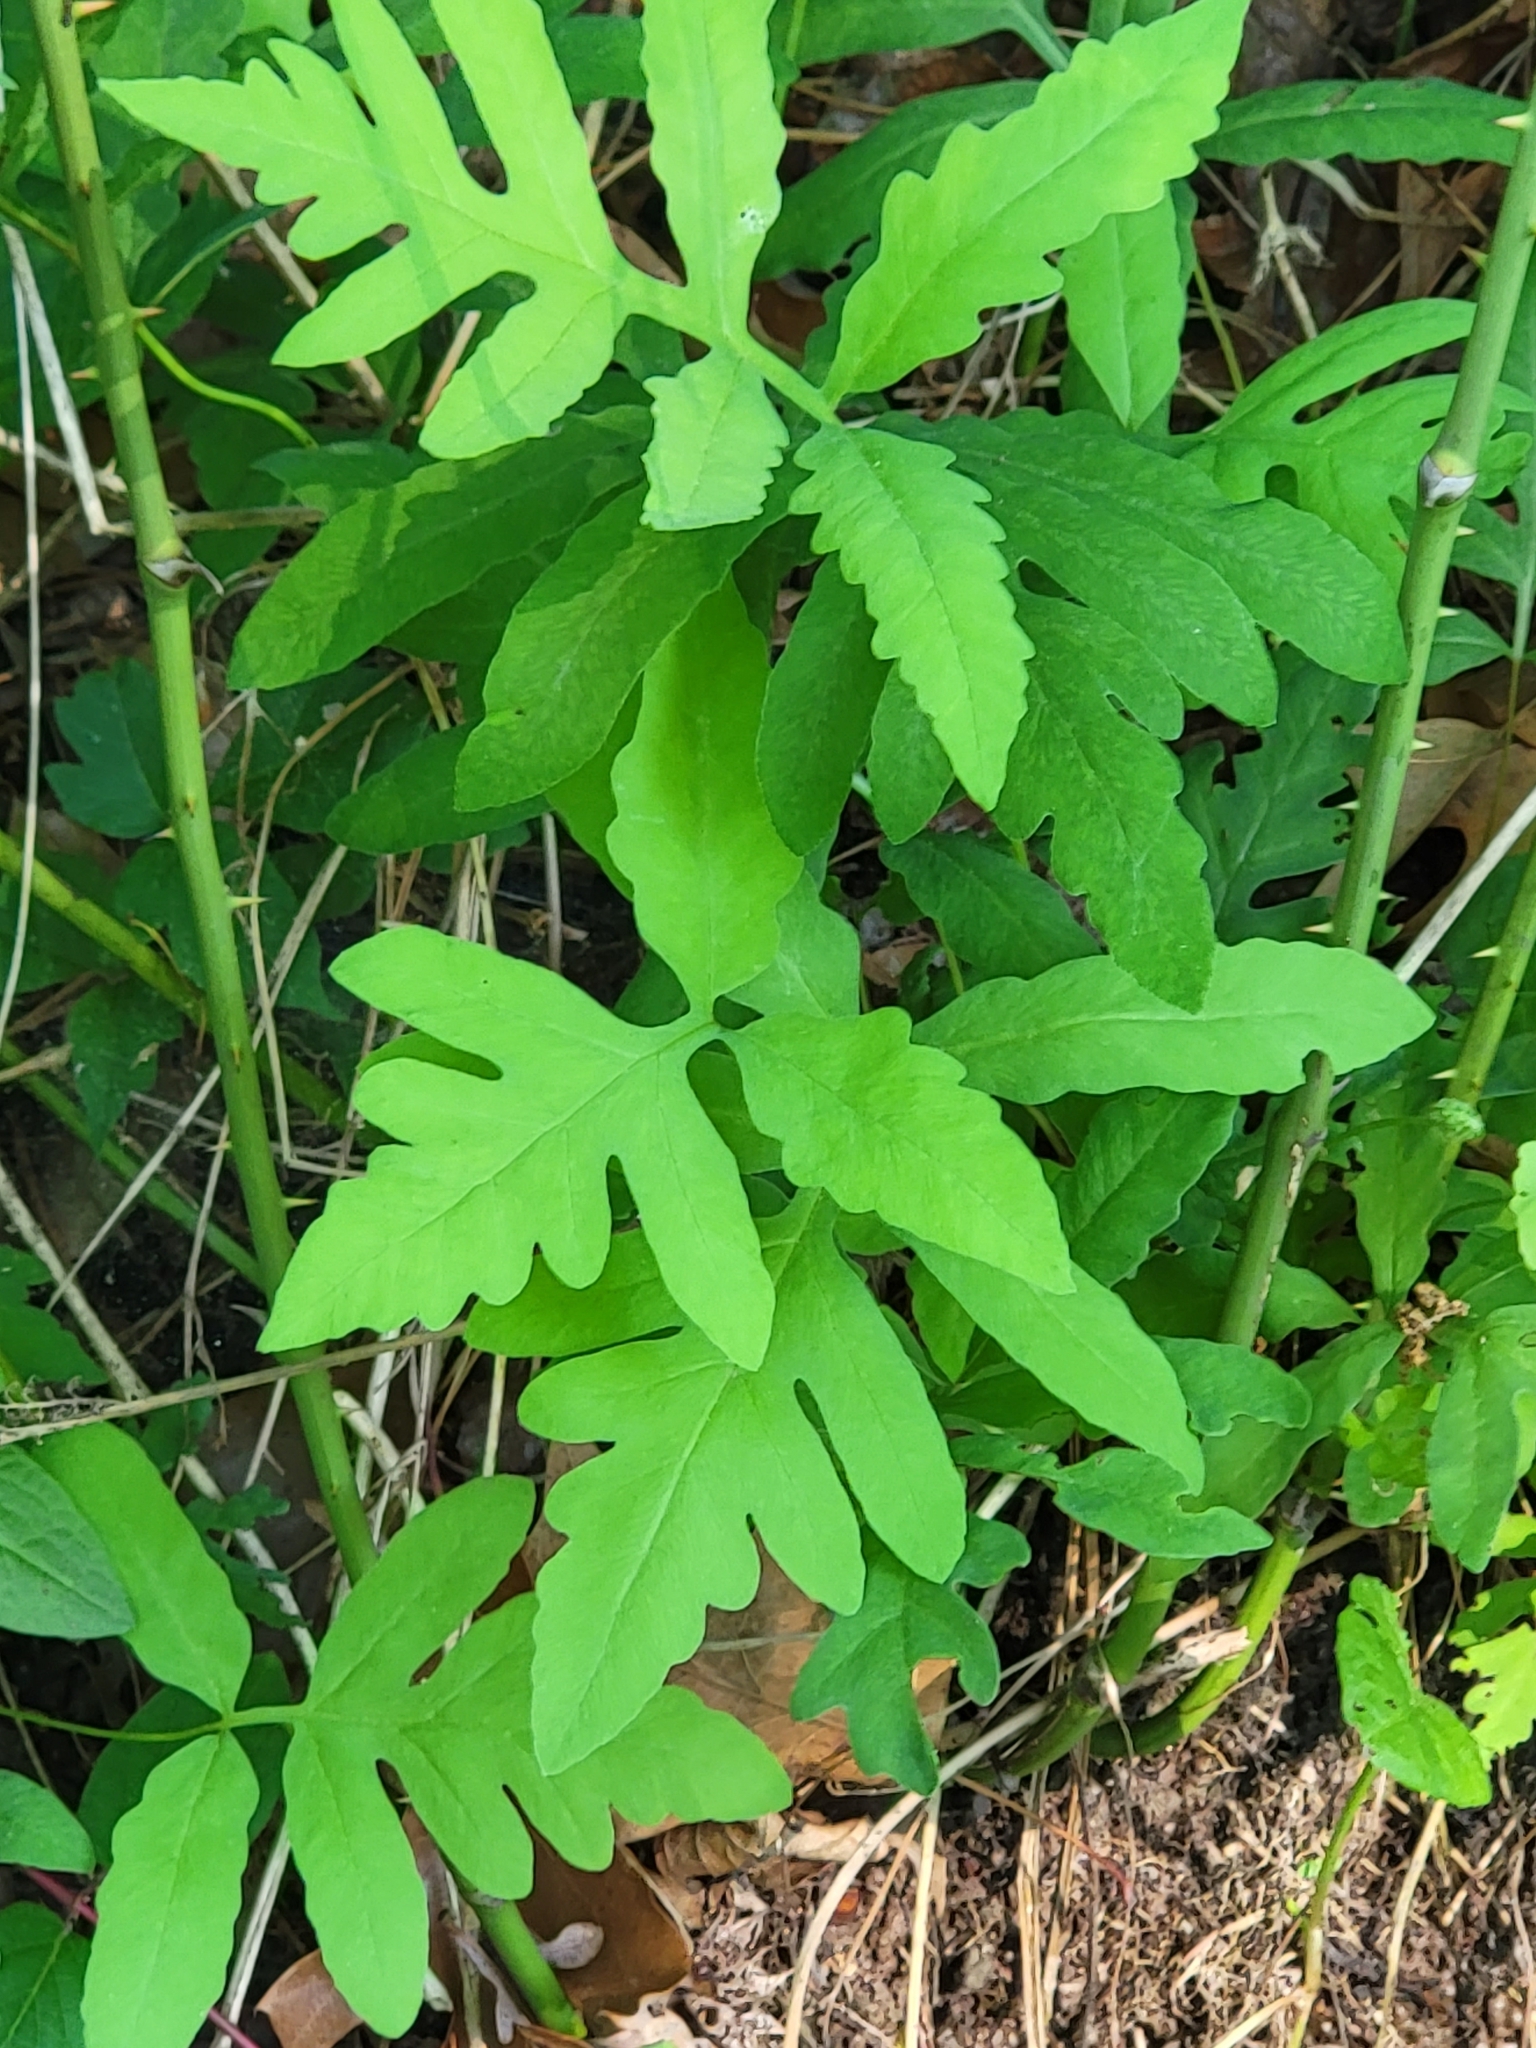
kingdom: Plantae
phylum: Tracheophyta
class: Polypodiopsida
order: Polypodiales
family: Onocleaceae
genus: Onoclea
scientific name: Onoclea sensibilis
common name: Sensitive fern
